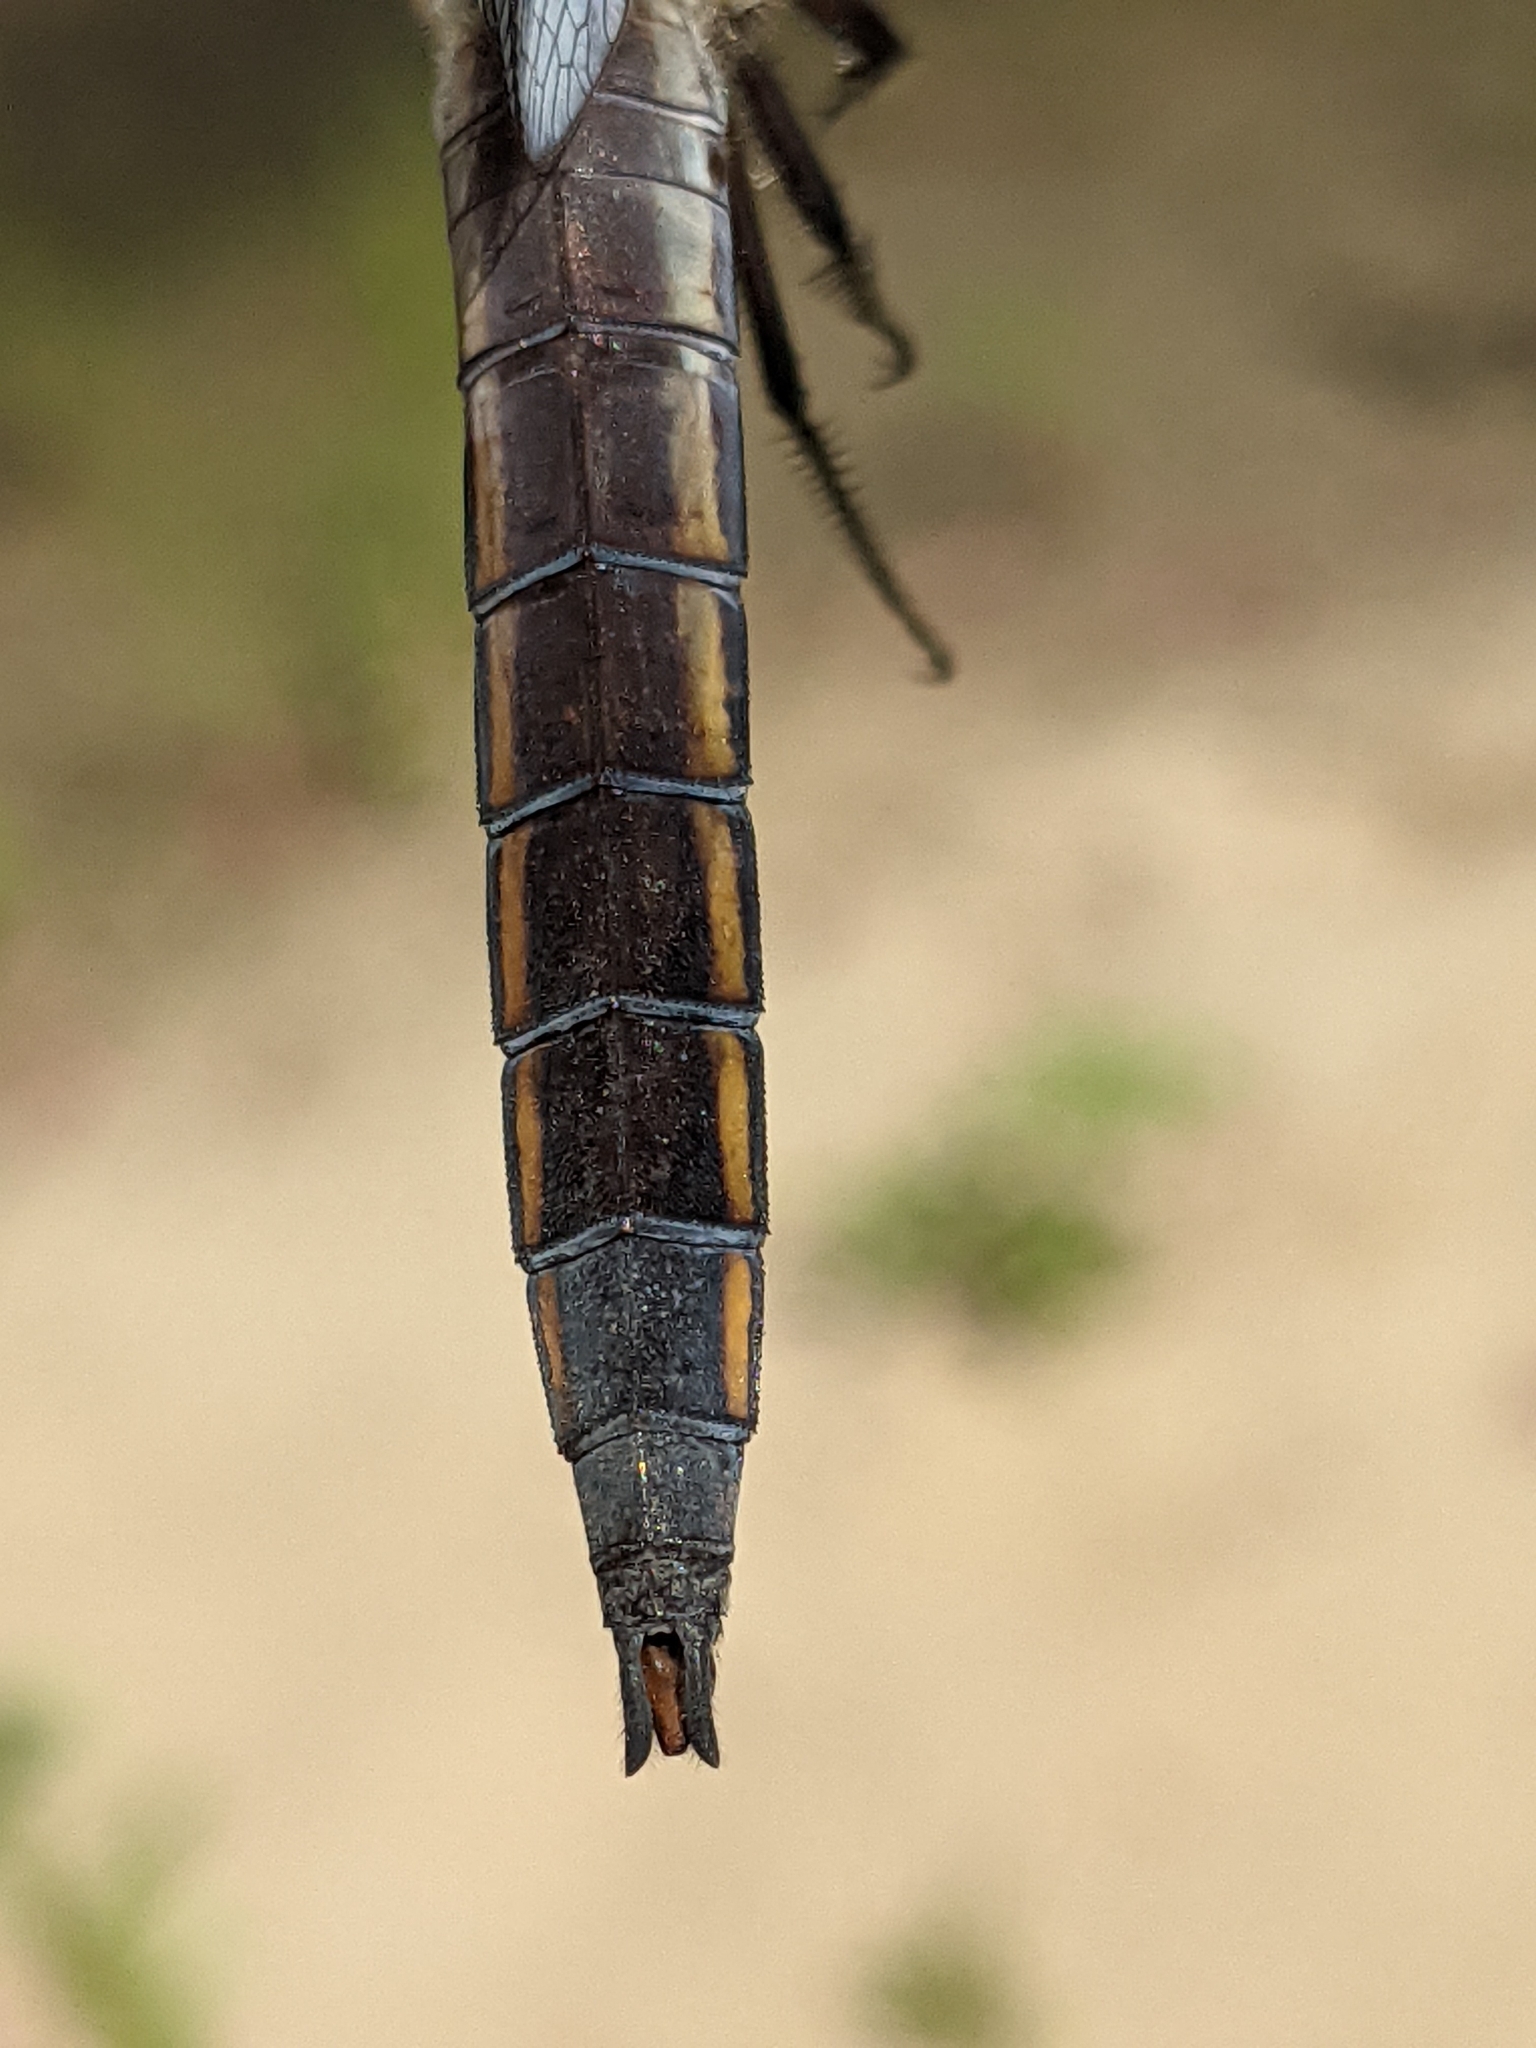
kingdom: Animalia
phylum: Arthropoda
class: Insecta
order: Odonata
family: Libellulidae
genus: Libellula
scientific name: Libellula pulchella
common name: Twelve-spotted skimmer
